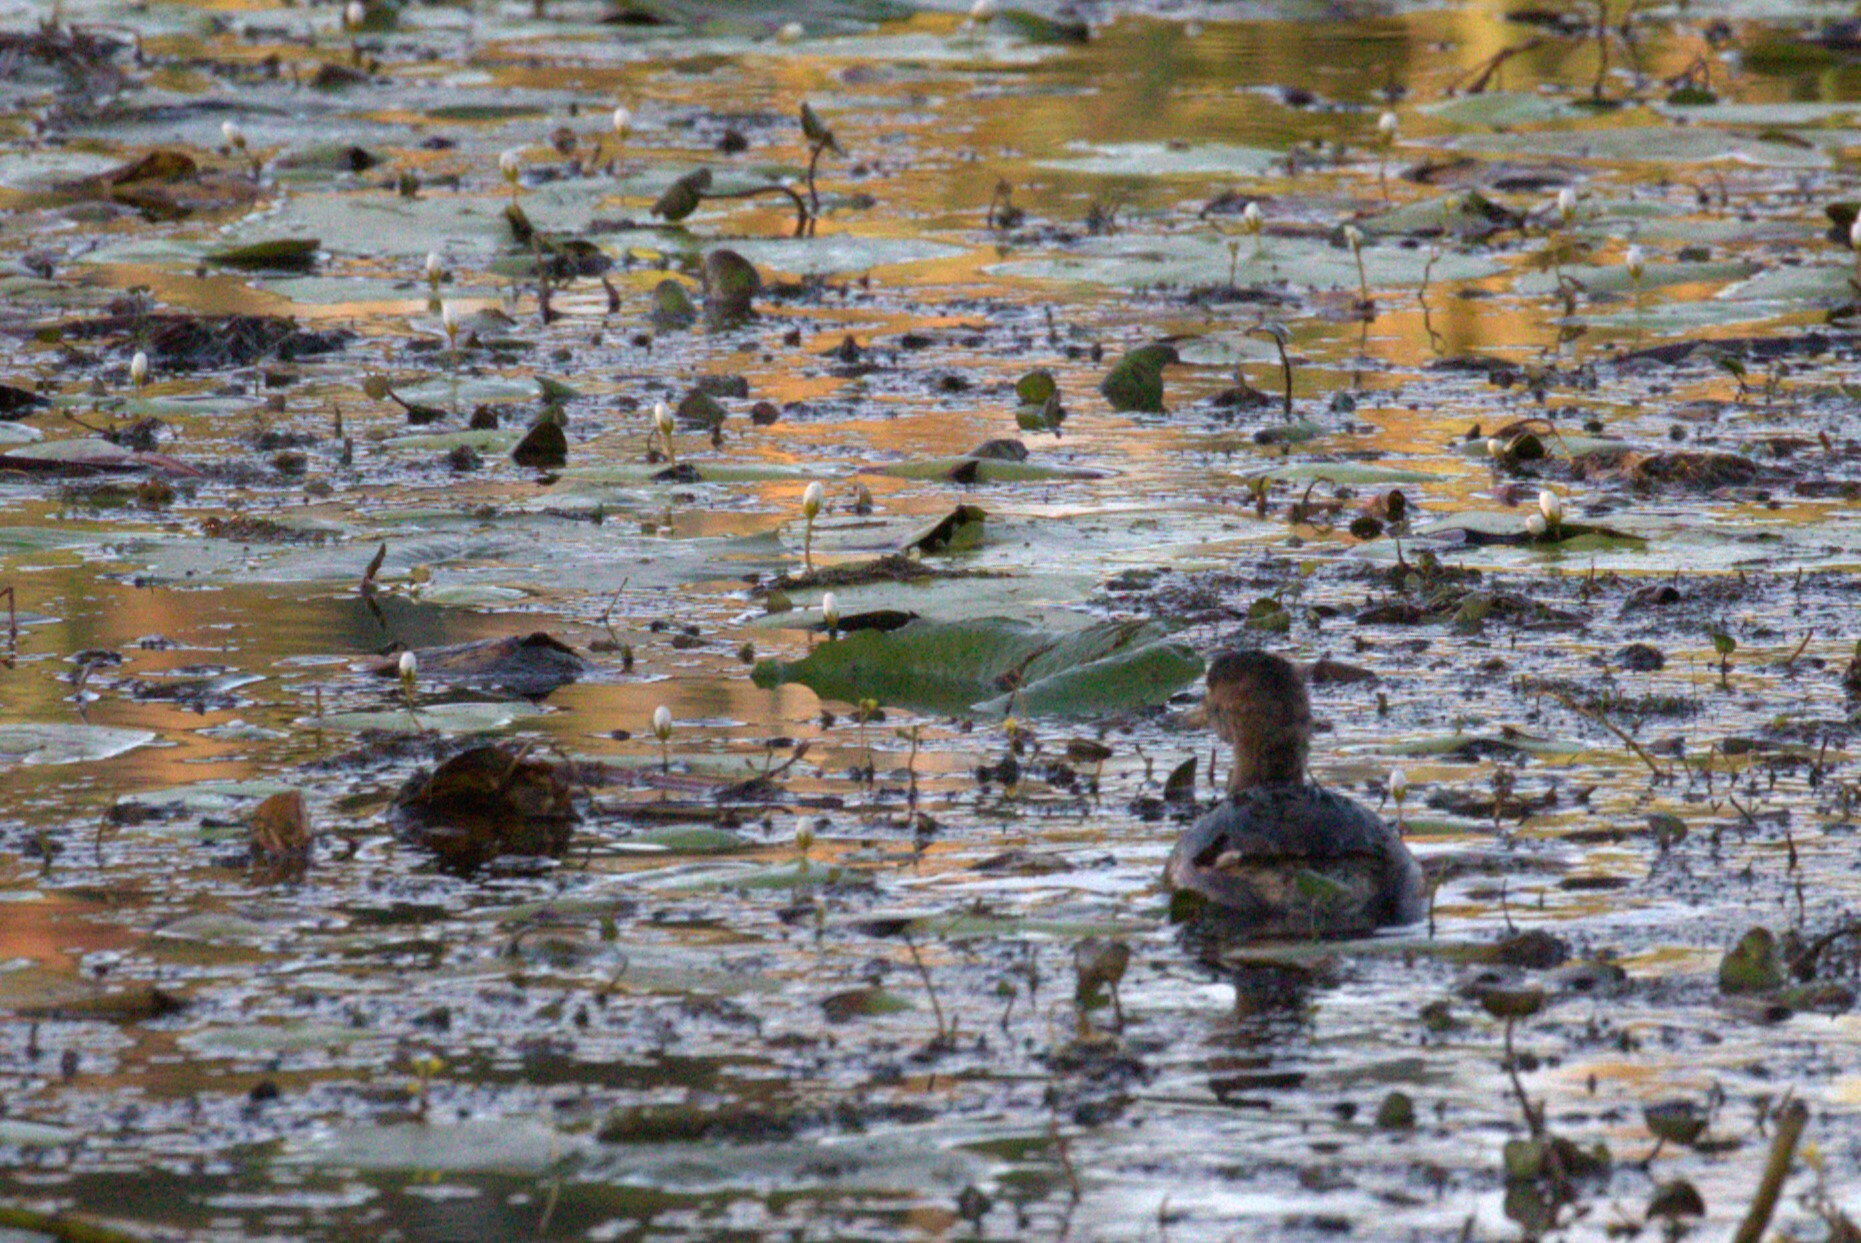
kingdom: Animalia
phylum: Chordata
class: Aves
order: Podicipediformes
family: Podicipedidae
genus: Tachybaptus
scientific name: Tachybaptus novaehollandiae
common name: Australasian grebe
